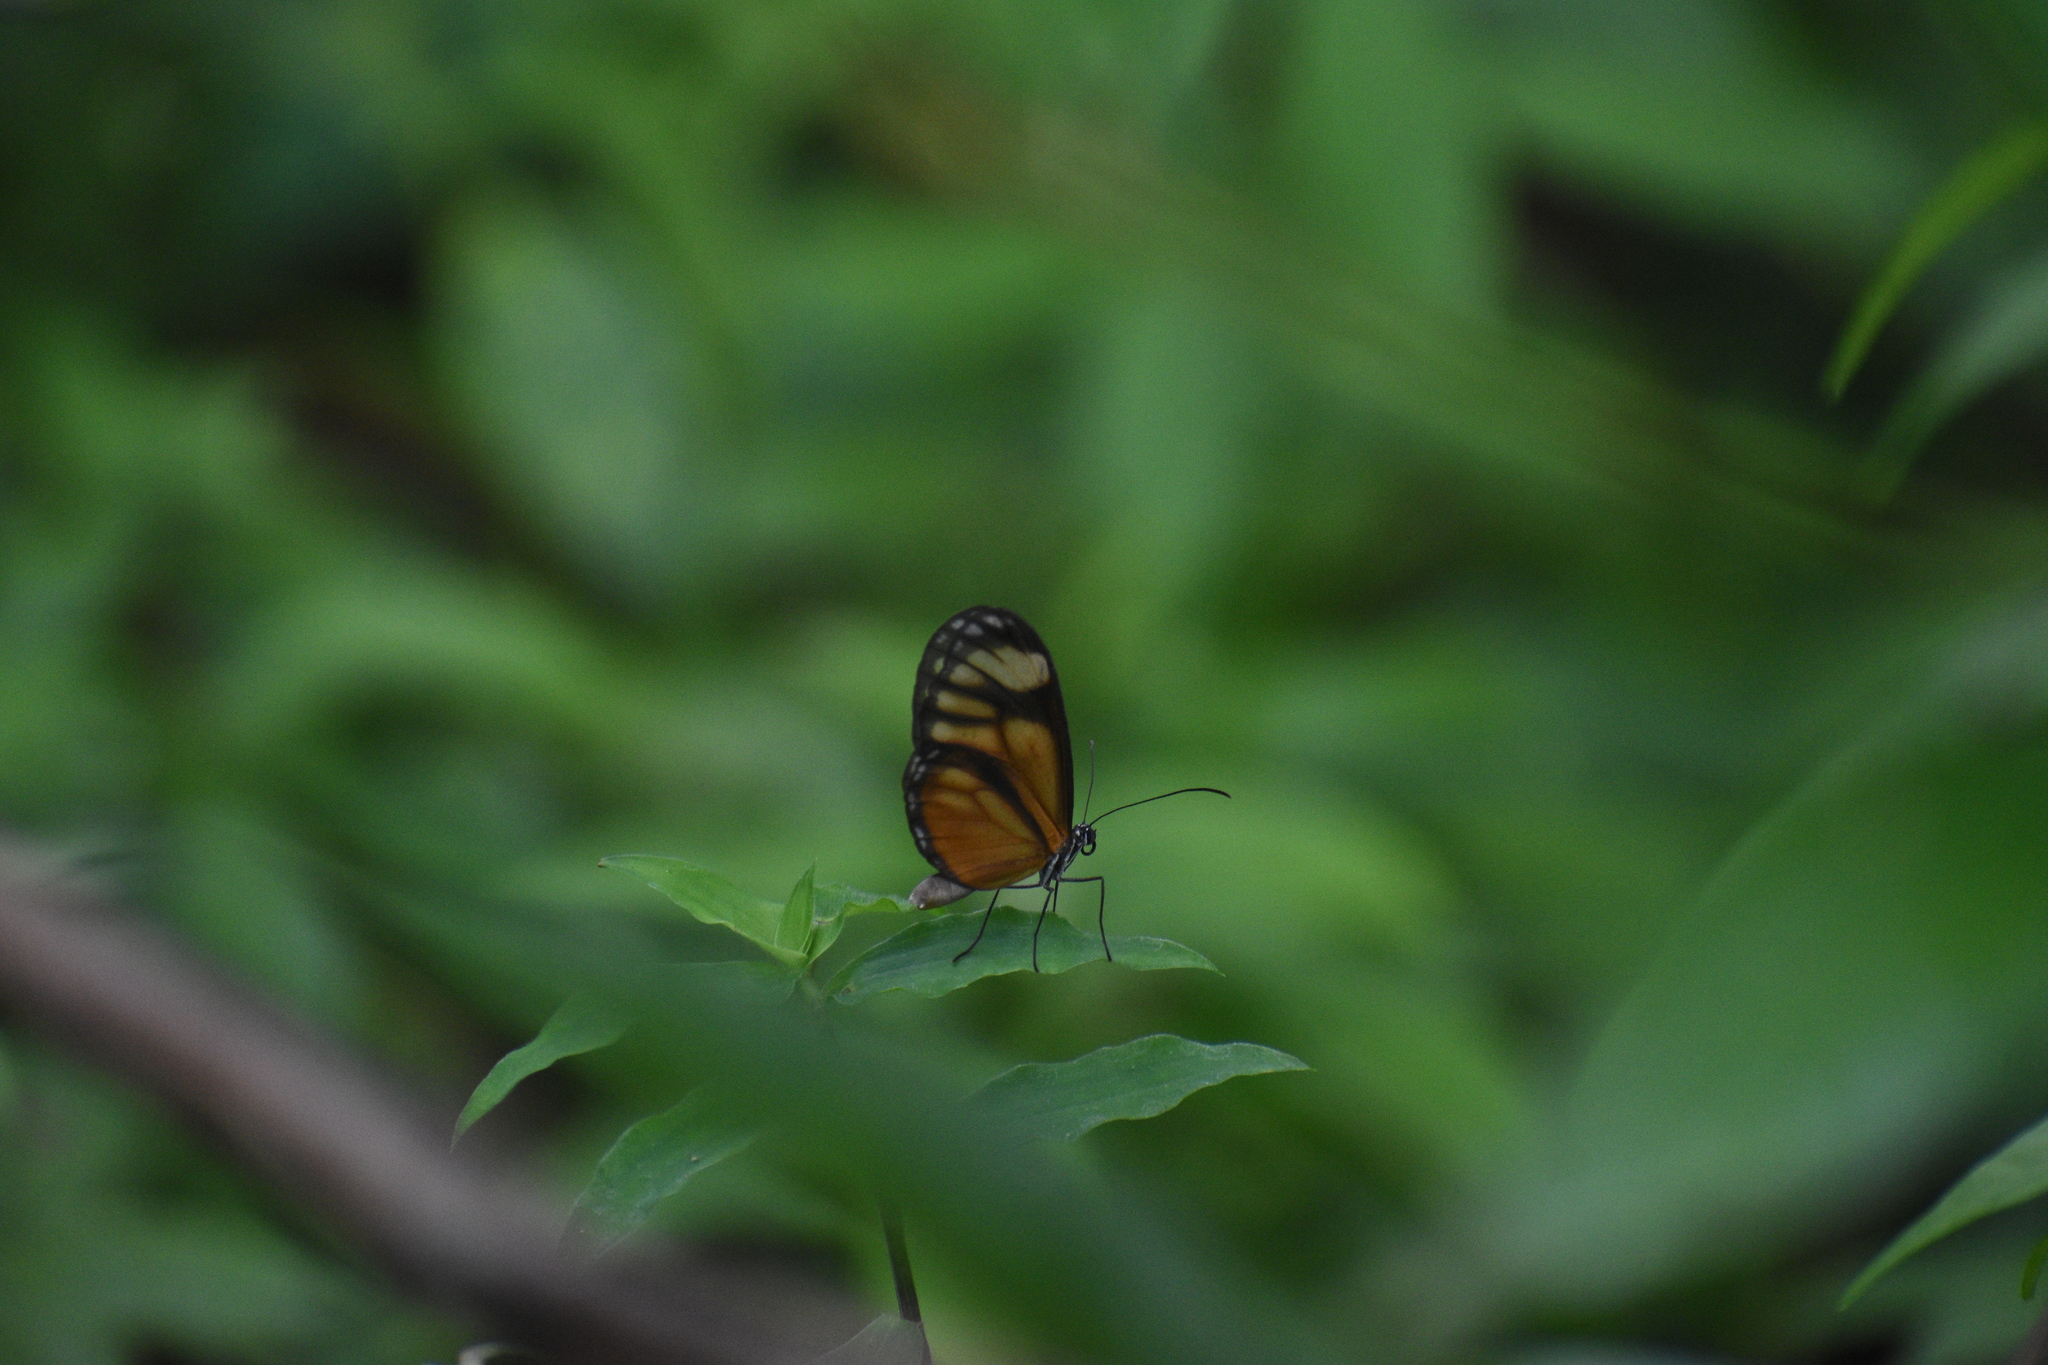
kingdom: Animalia
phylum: Arthropoda
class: Insecta
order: Lepidoptera
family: Nymphalidae
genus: Hypoleria
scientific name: Hypoleria ocalea
